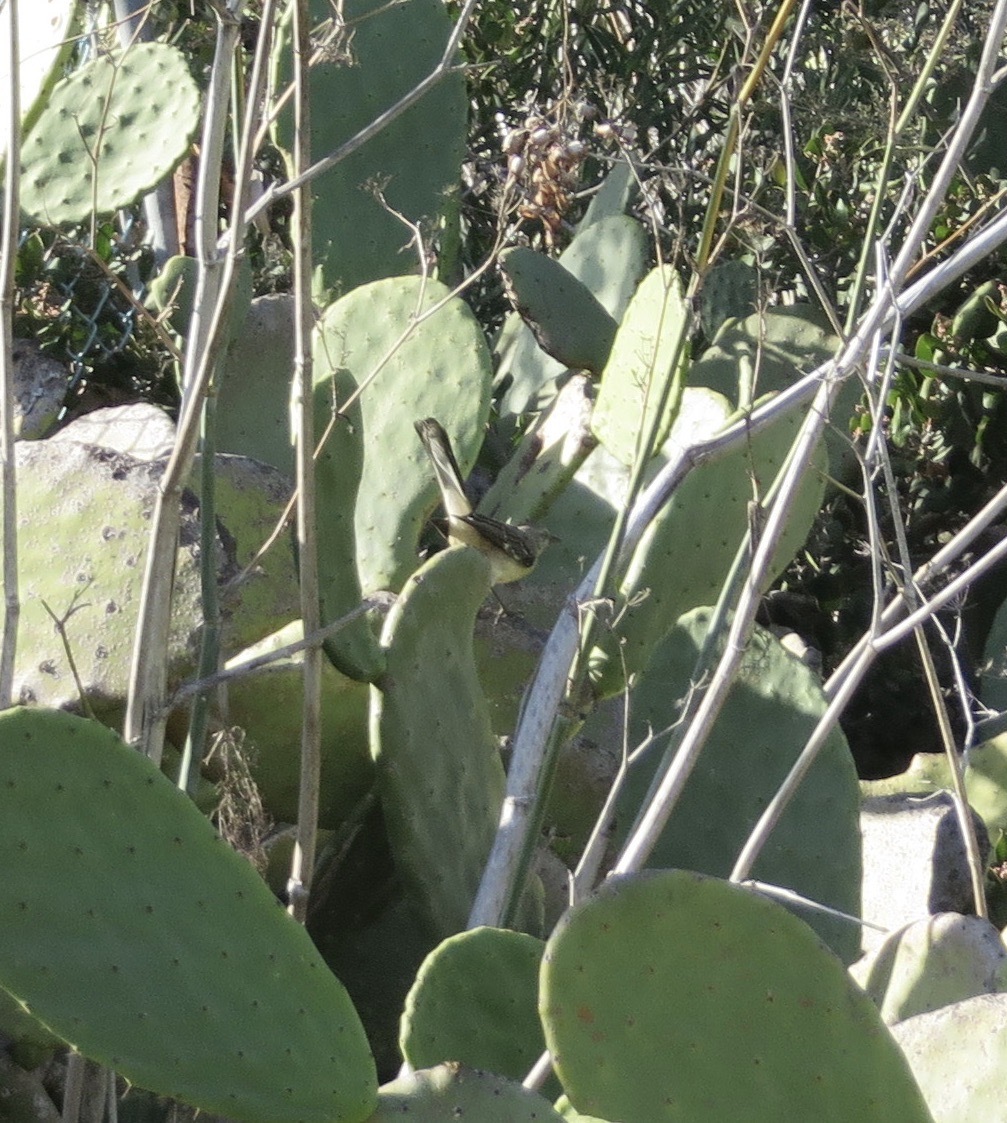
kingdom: Animalia
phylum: Chordata
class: Aves
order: Passeriformes
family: Mimidae
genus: Mimus
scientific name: Mimus polyglottos
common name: Northern mockingbird
